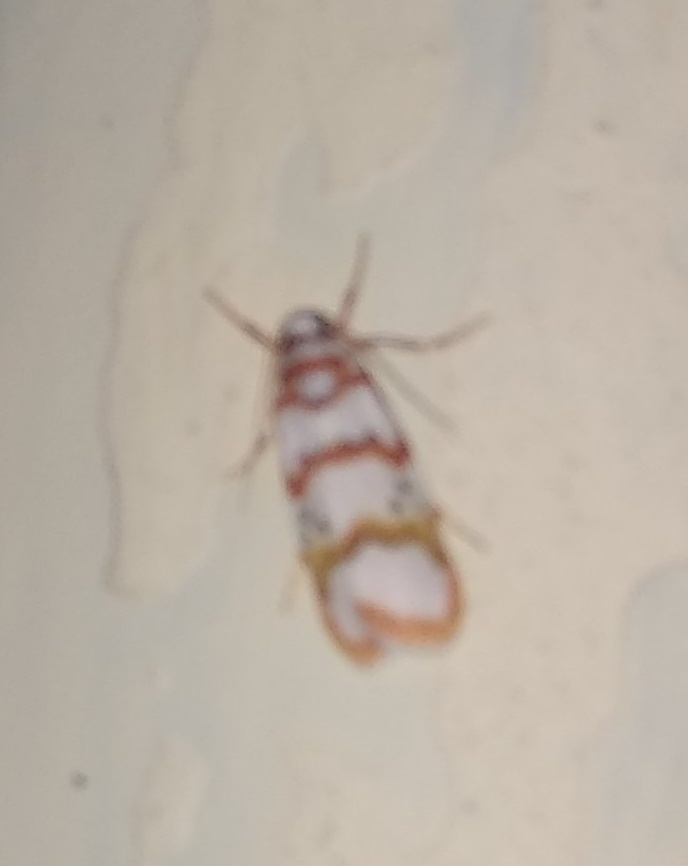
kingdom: Animalia
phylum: Arthropoda
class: Insecta
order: Lepidoptera
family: Erebidae
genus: Cyana
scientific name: Cyana puella
